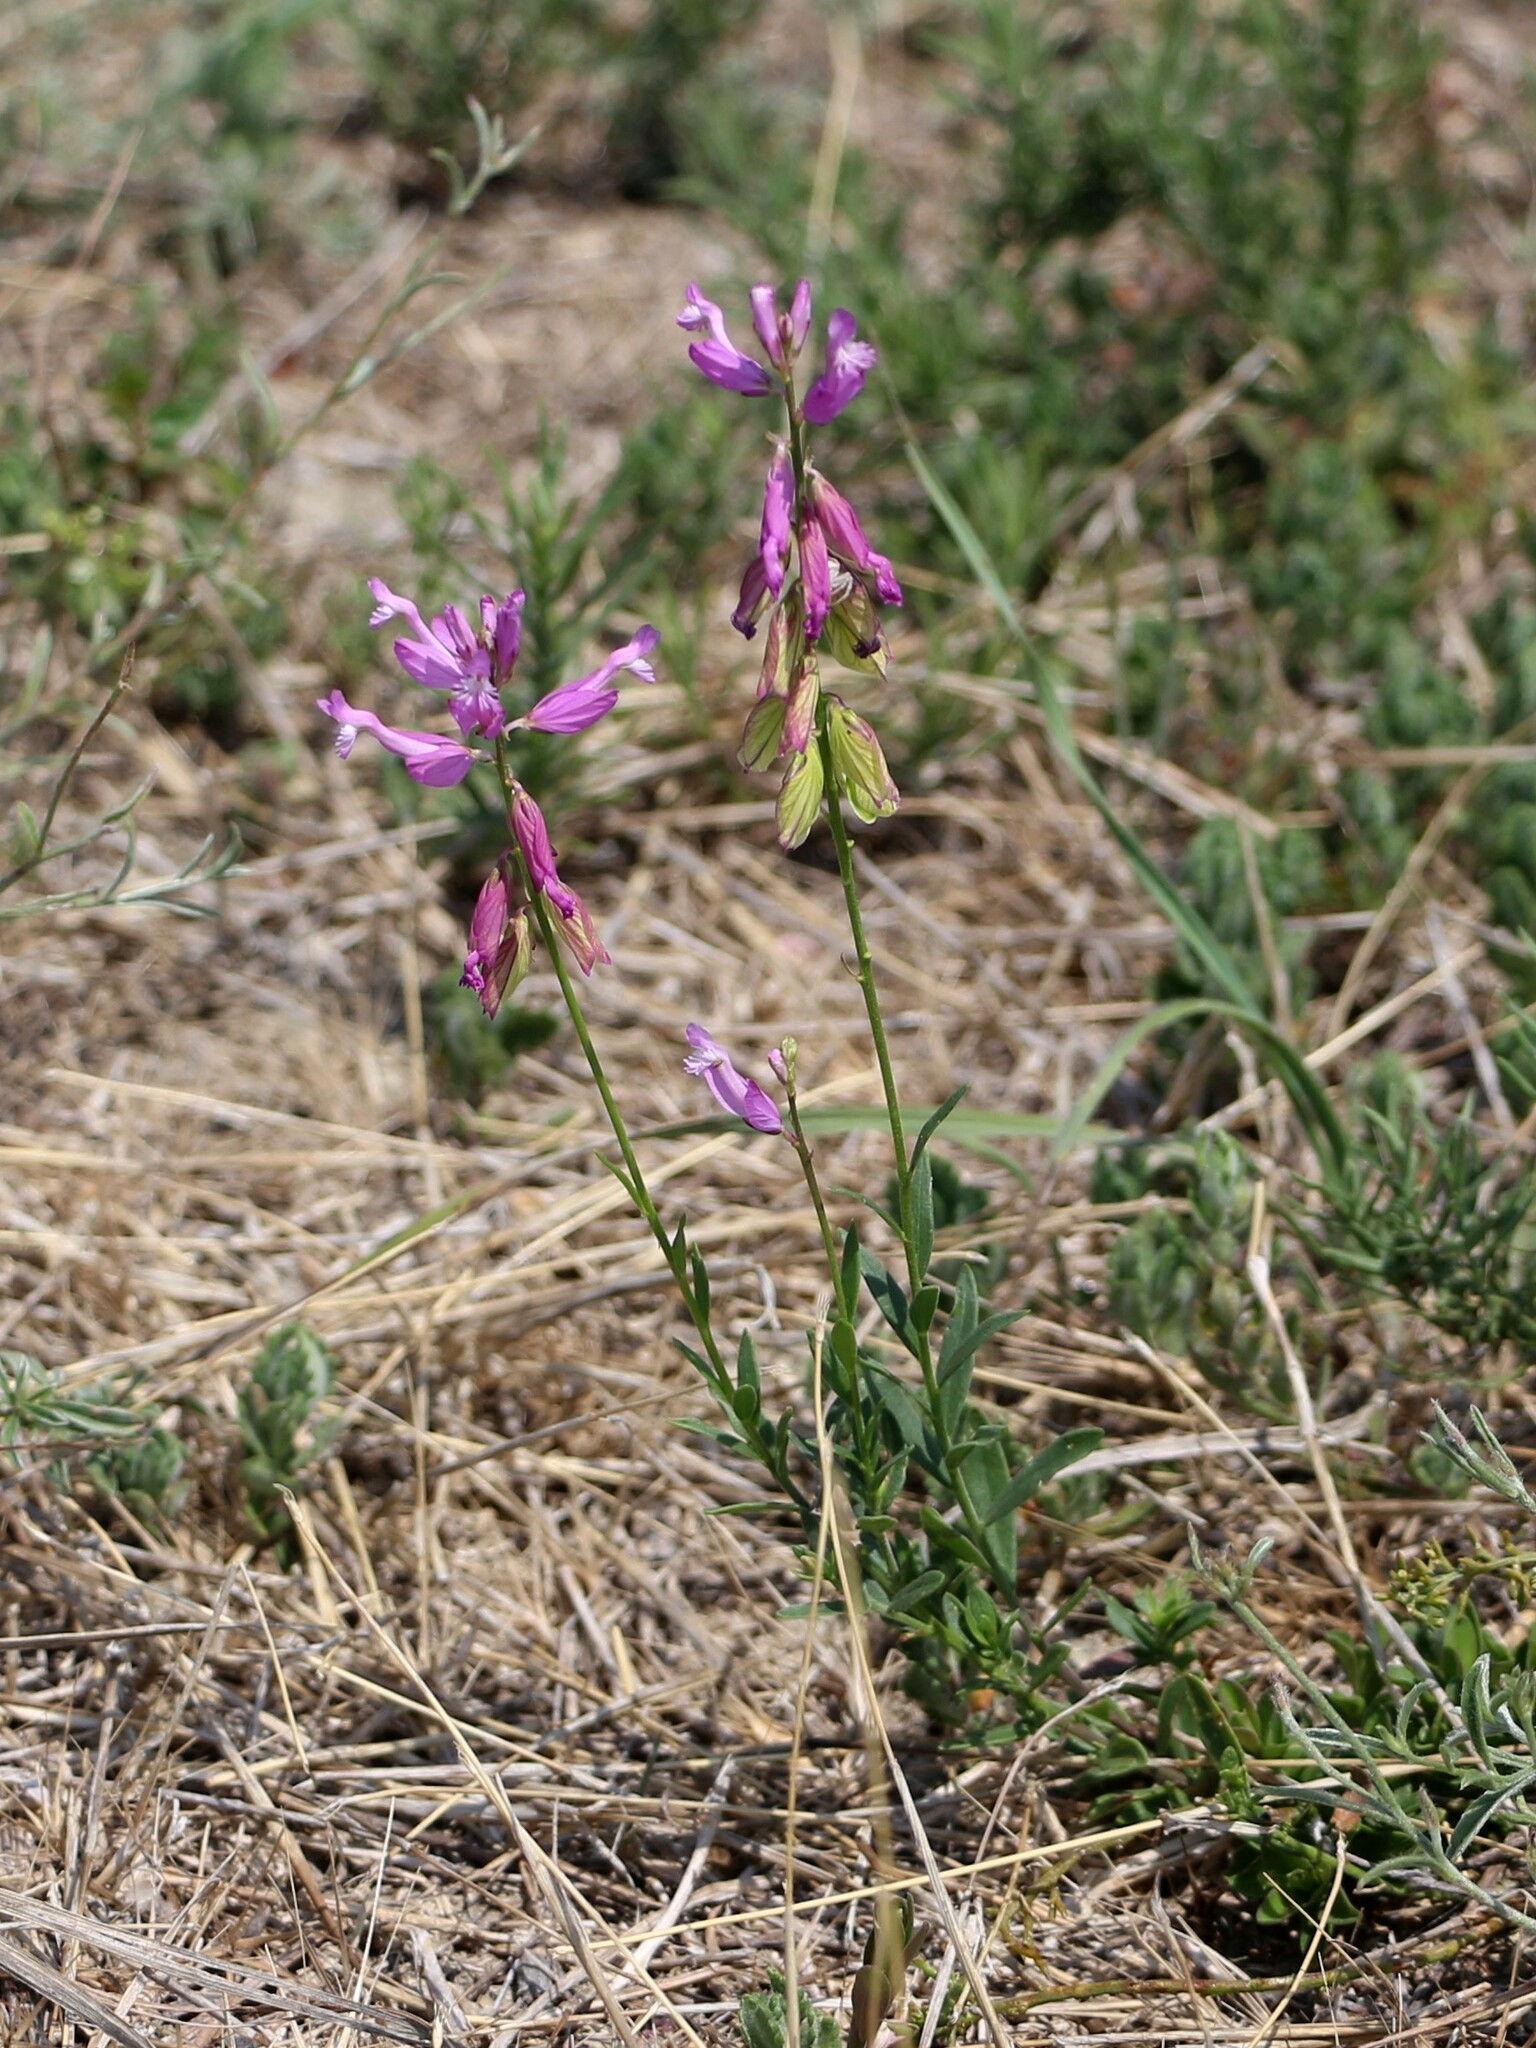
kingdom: Plantae
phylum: Tracheophyta
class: Magnoliopsida
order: Fabales
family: Polygalaceae
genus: Polygala
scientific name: Polygala major
